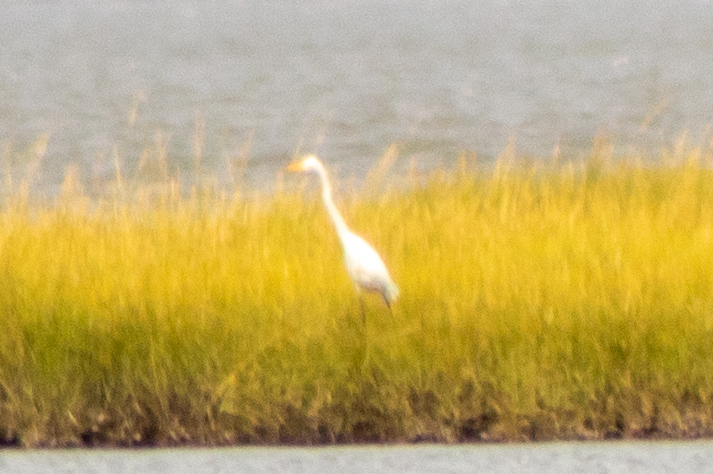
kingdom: Animalia
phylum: Chordata
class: Aves
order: Pelecaniformes
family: Ardeidae
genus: Ardea
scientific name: Ardea alba
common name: Great egret
